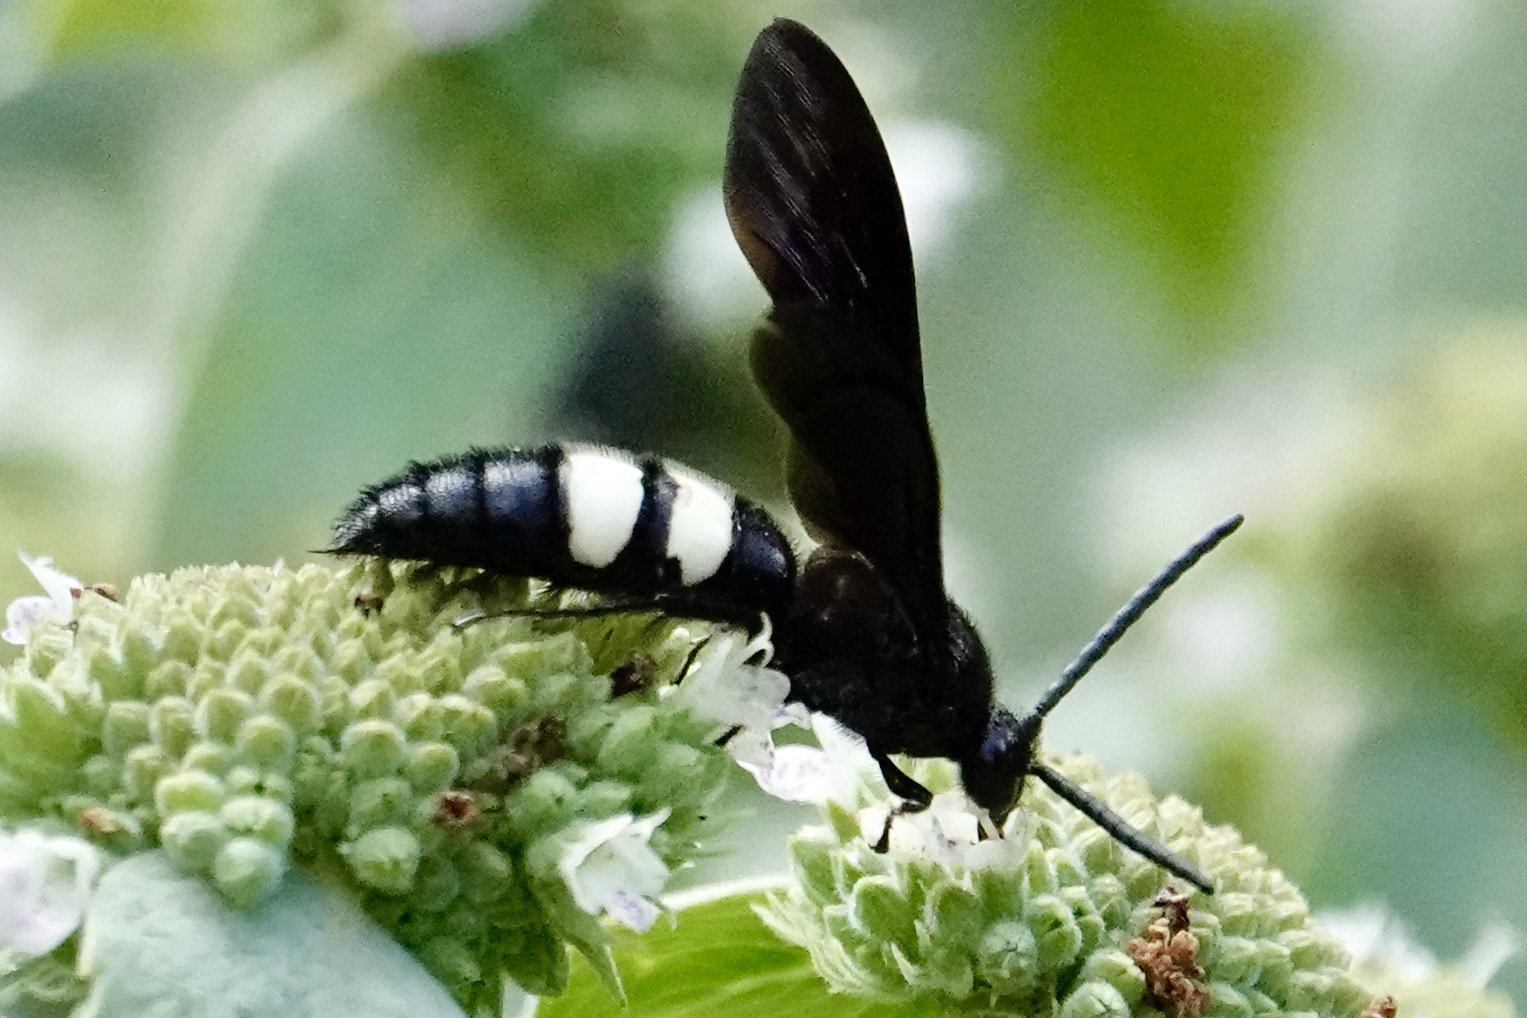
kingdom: Animalia
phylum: Arthropoda
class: Insecta
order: Hymenoptera
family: Scoliidae
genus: Scolia
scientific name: Scolia bicincta
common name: Double-banded scoliid wasp
